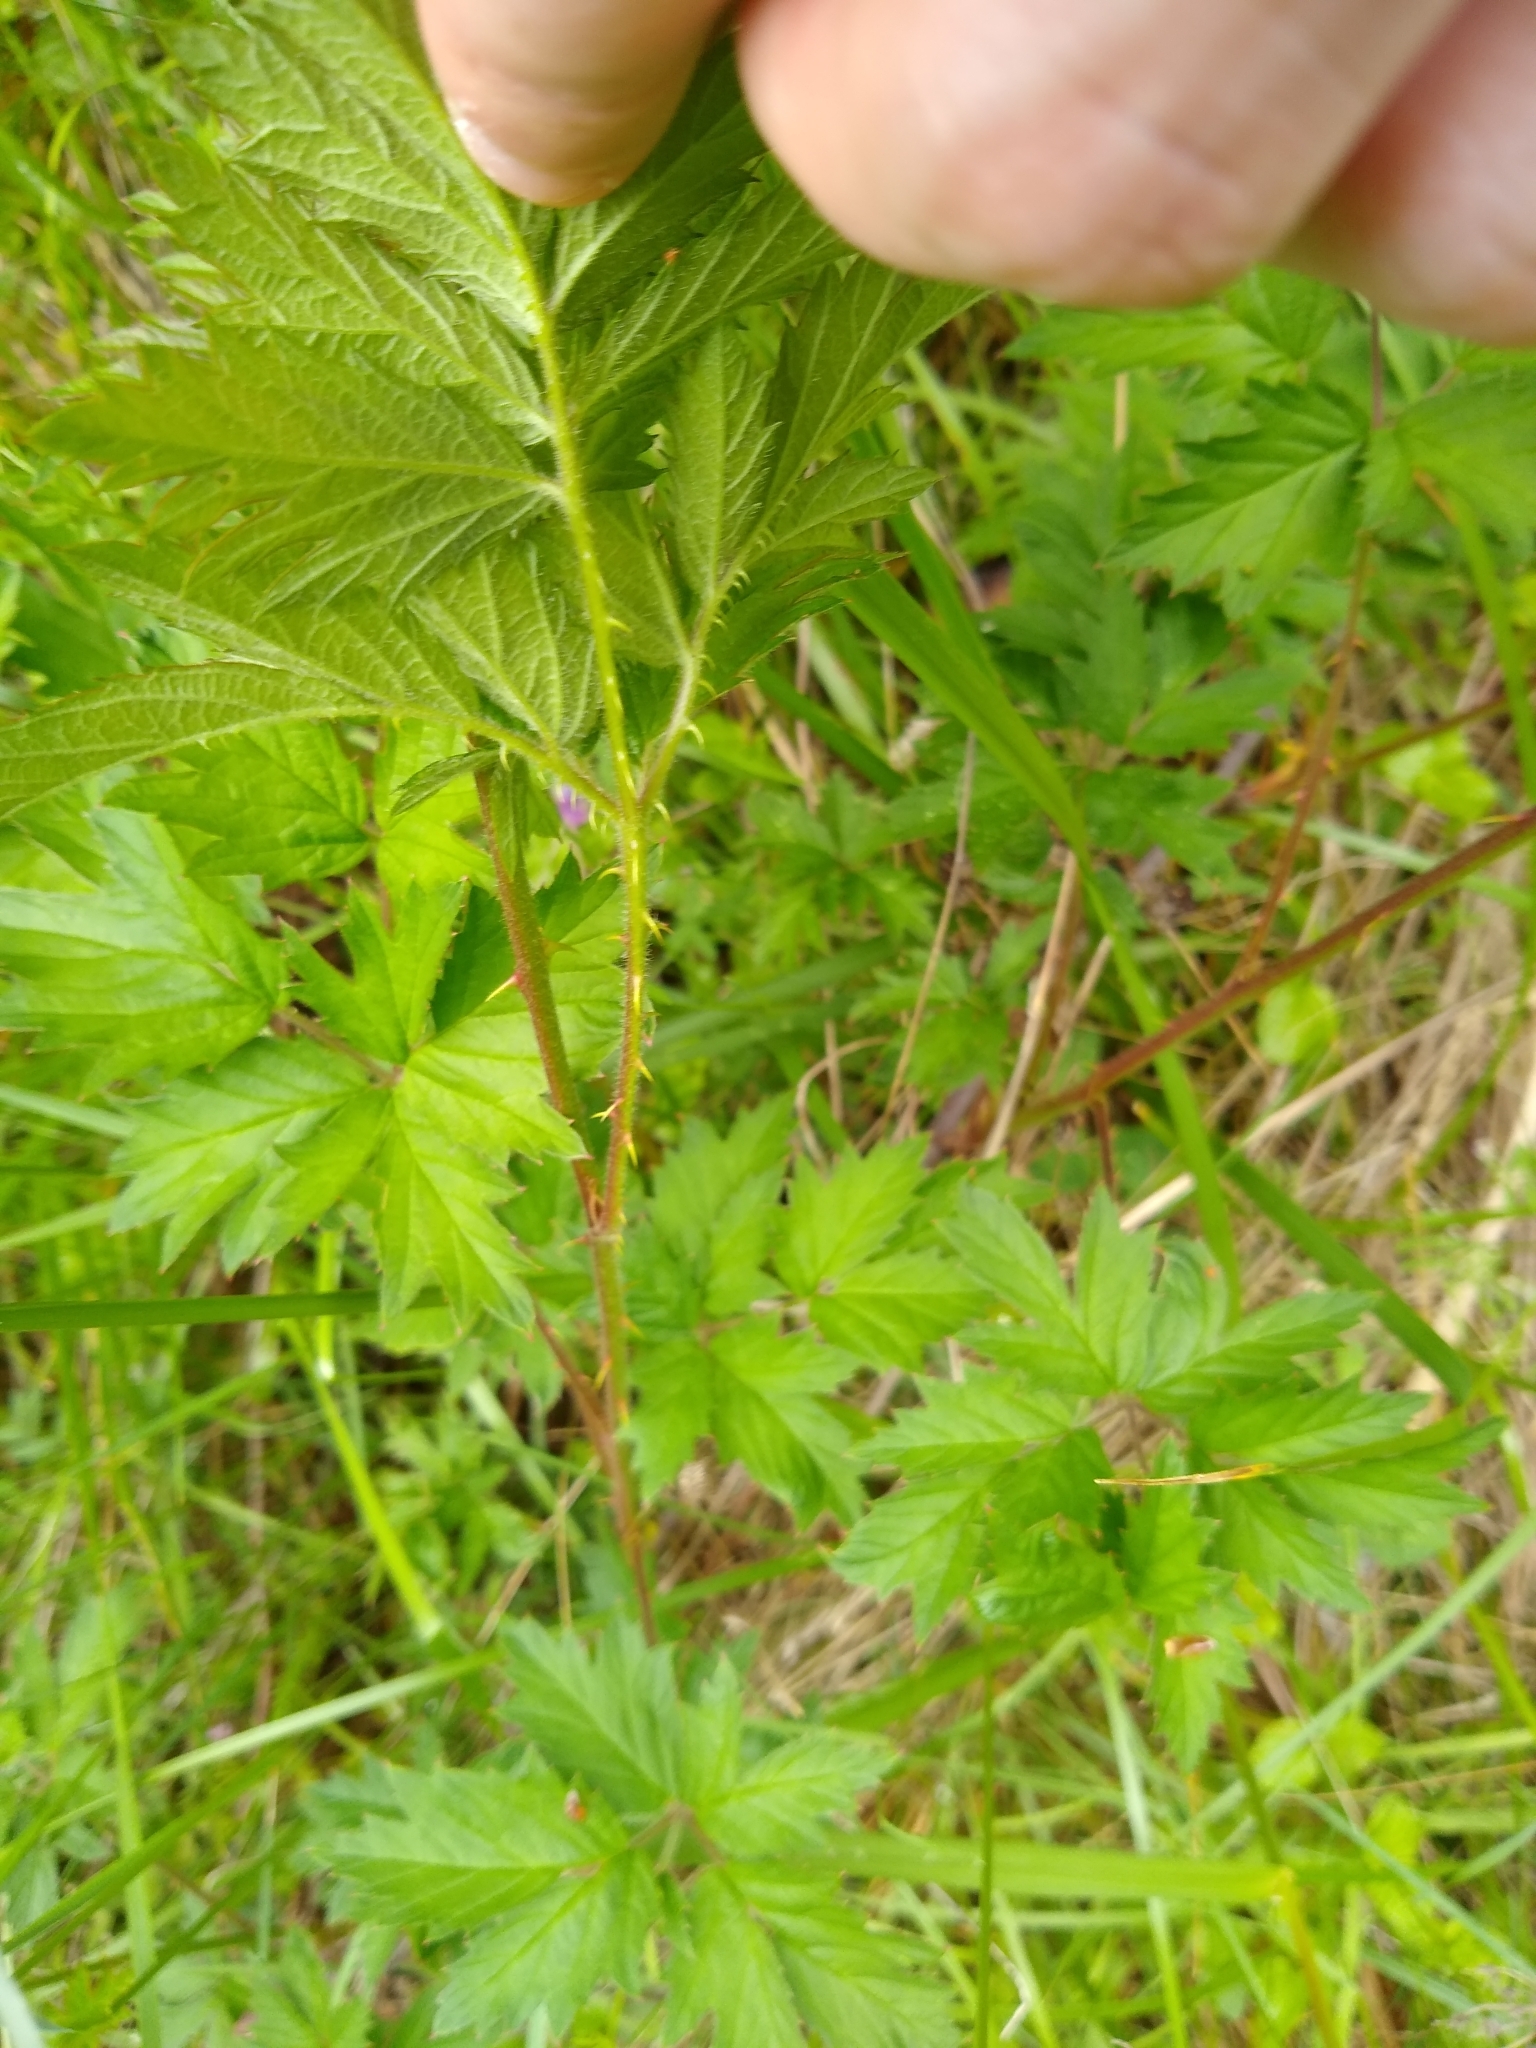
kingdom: Plantae
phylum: Tracheophyta
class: Magnoliopsida
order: Rosales
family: Rosaceae
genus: Rubus
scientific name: Rubus laciniatus
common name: Evergreen blackberry
